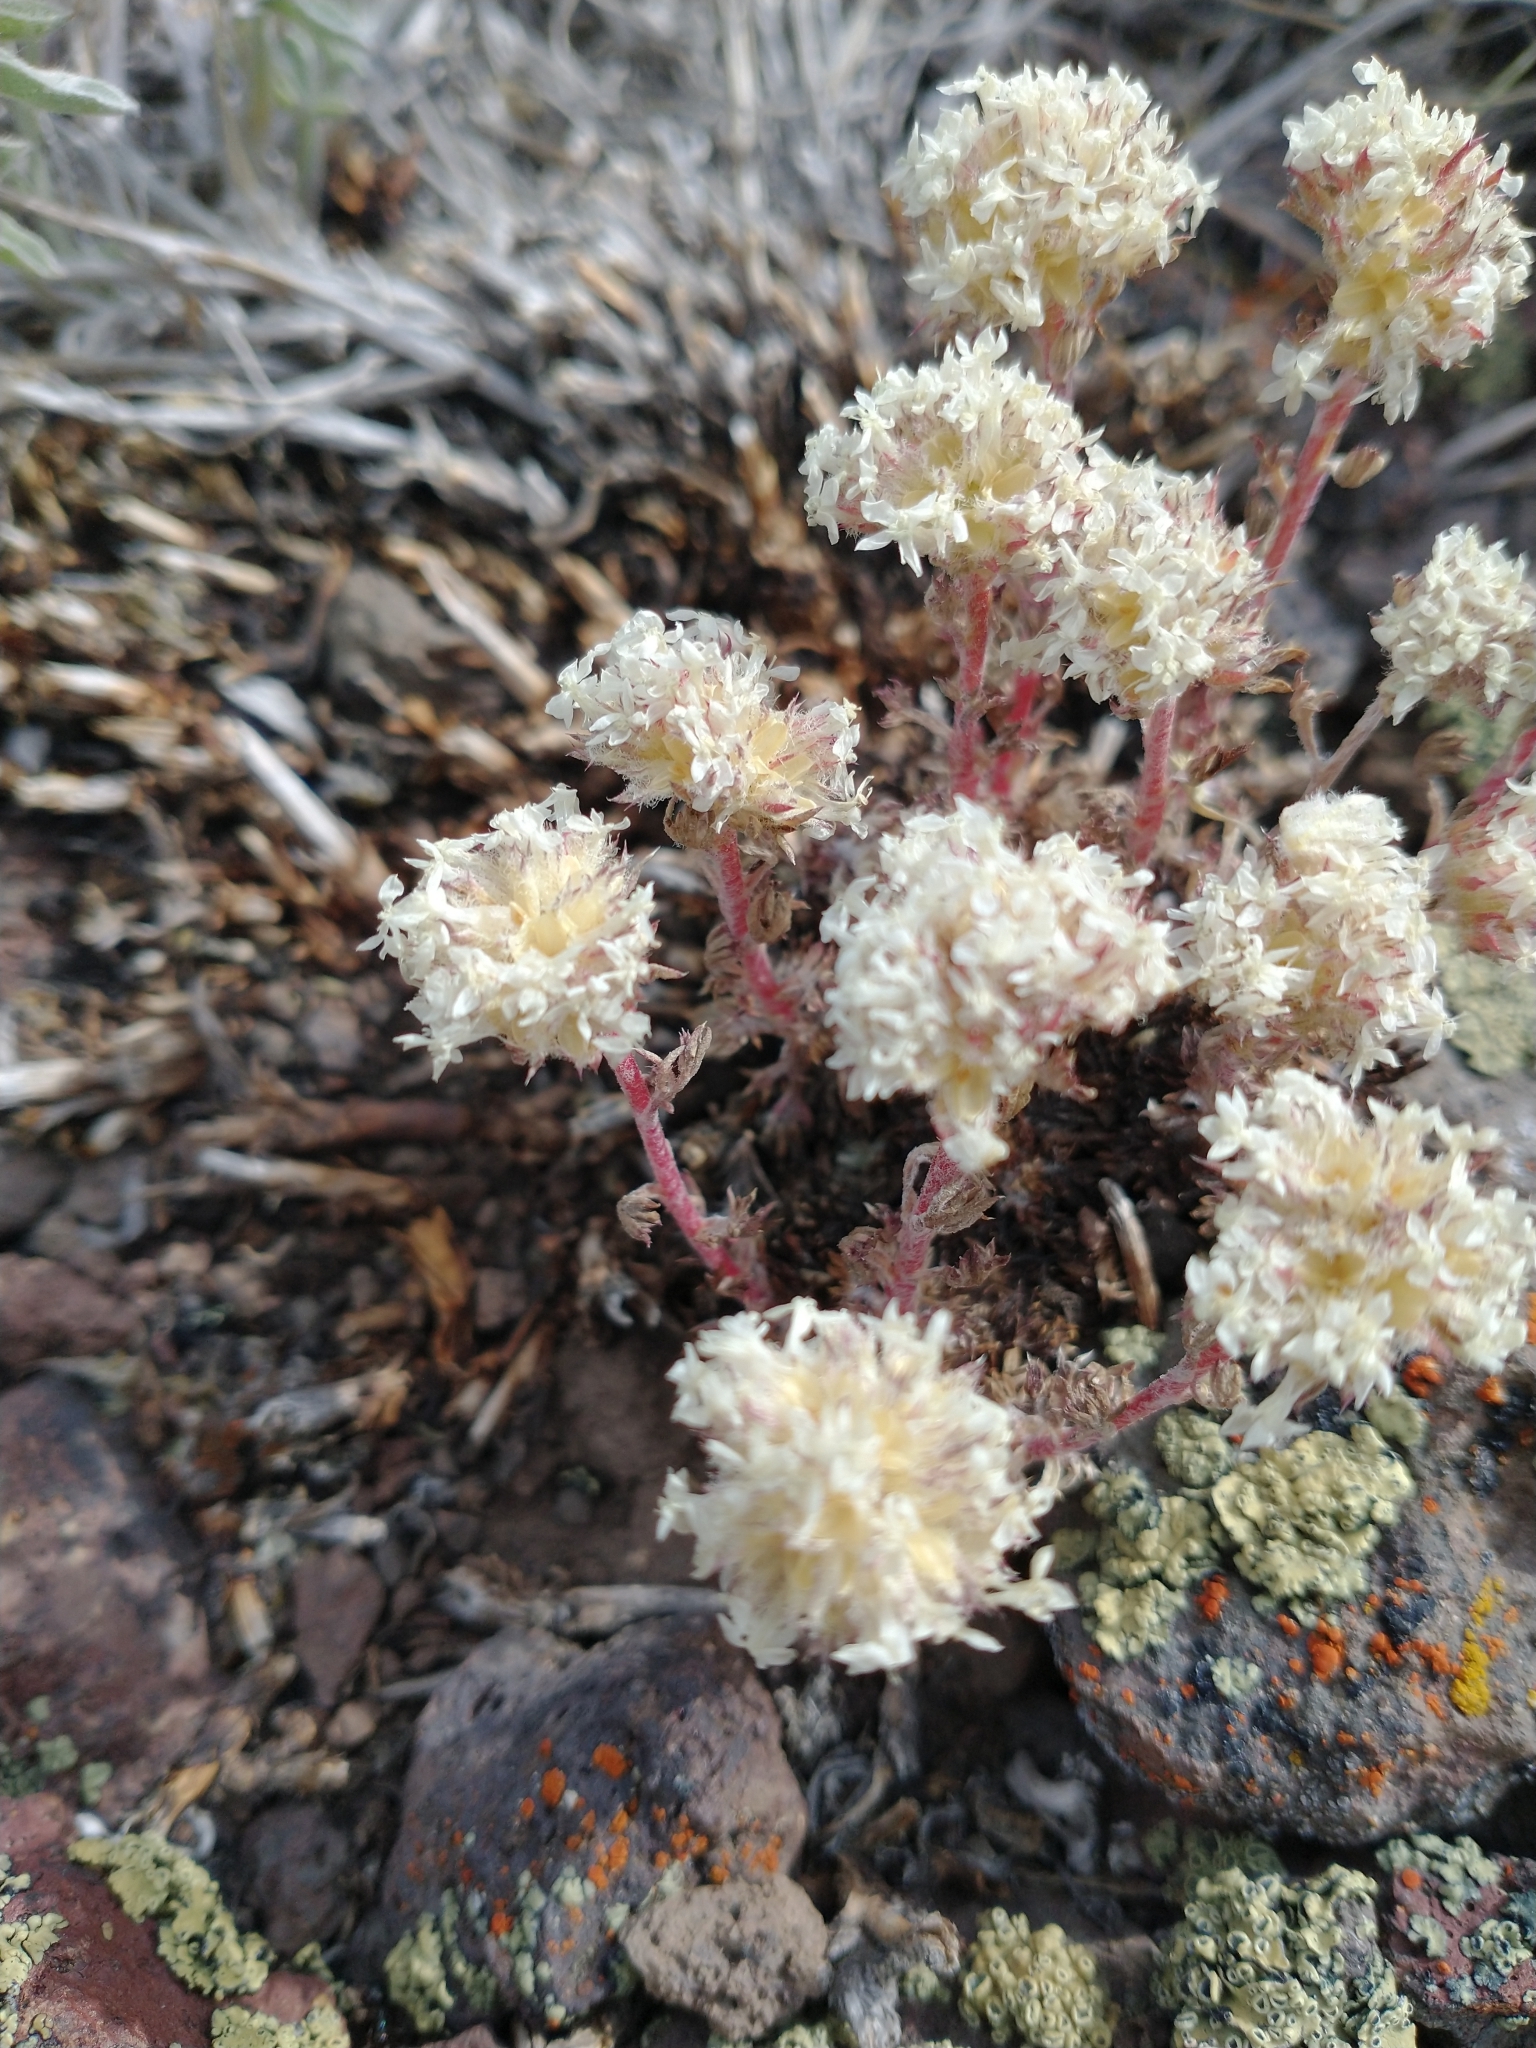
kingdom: Plantae
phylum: Tracheophyta
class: Magnoliopsida
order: Ericales
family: Polemoniaceae
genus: Ipomopsis
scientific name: Ipomopsis congesta
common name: Ball-head gilia
